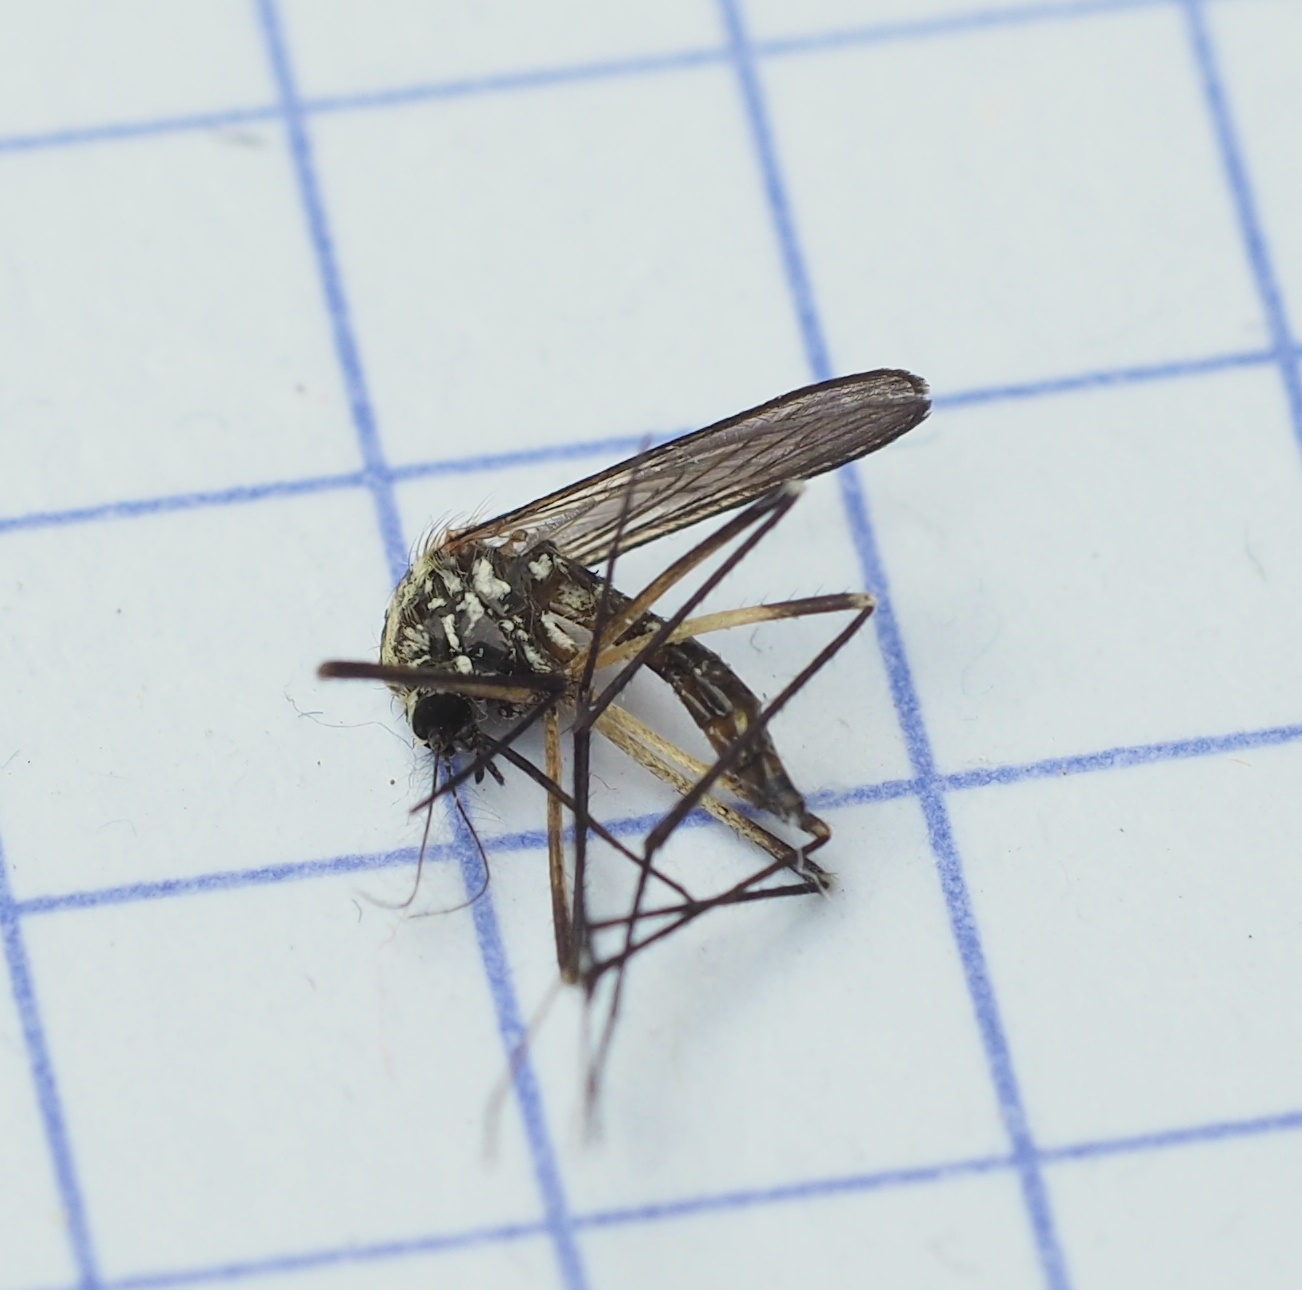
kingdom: Animalia
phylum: Arthropoda
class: Insecta
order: Diptera
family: Culicidae
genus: Aedes
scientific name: Aedes geniculatus
